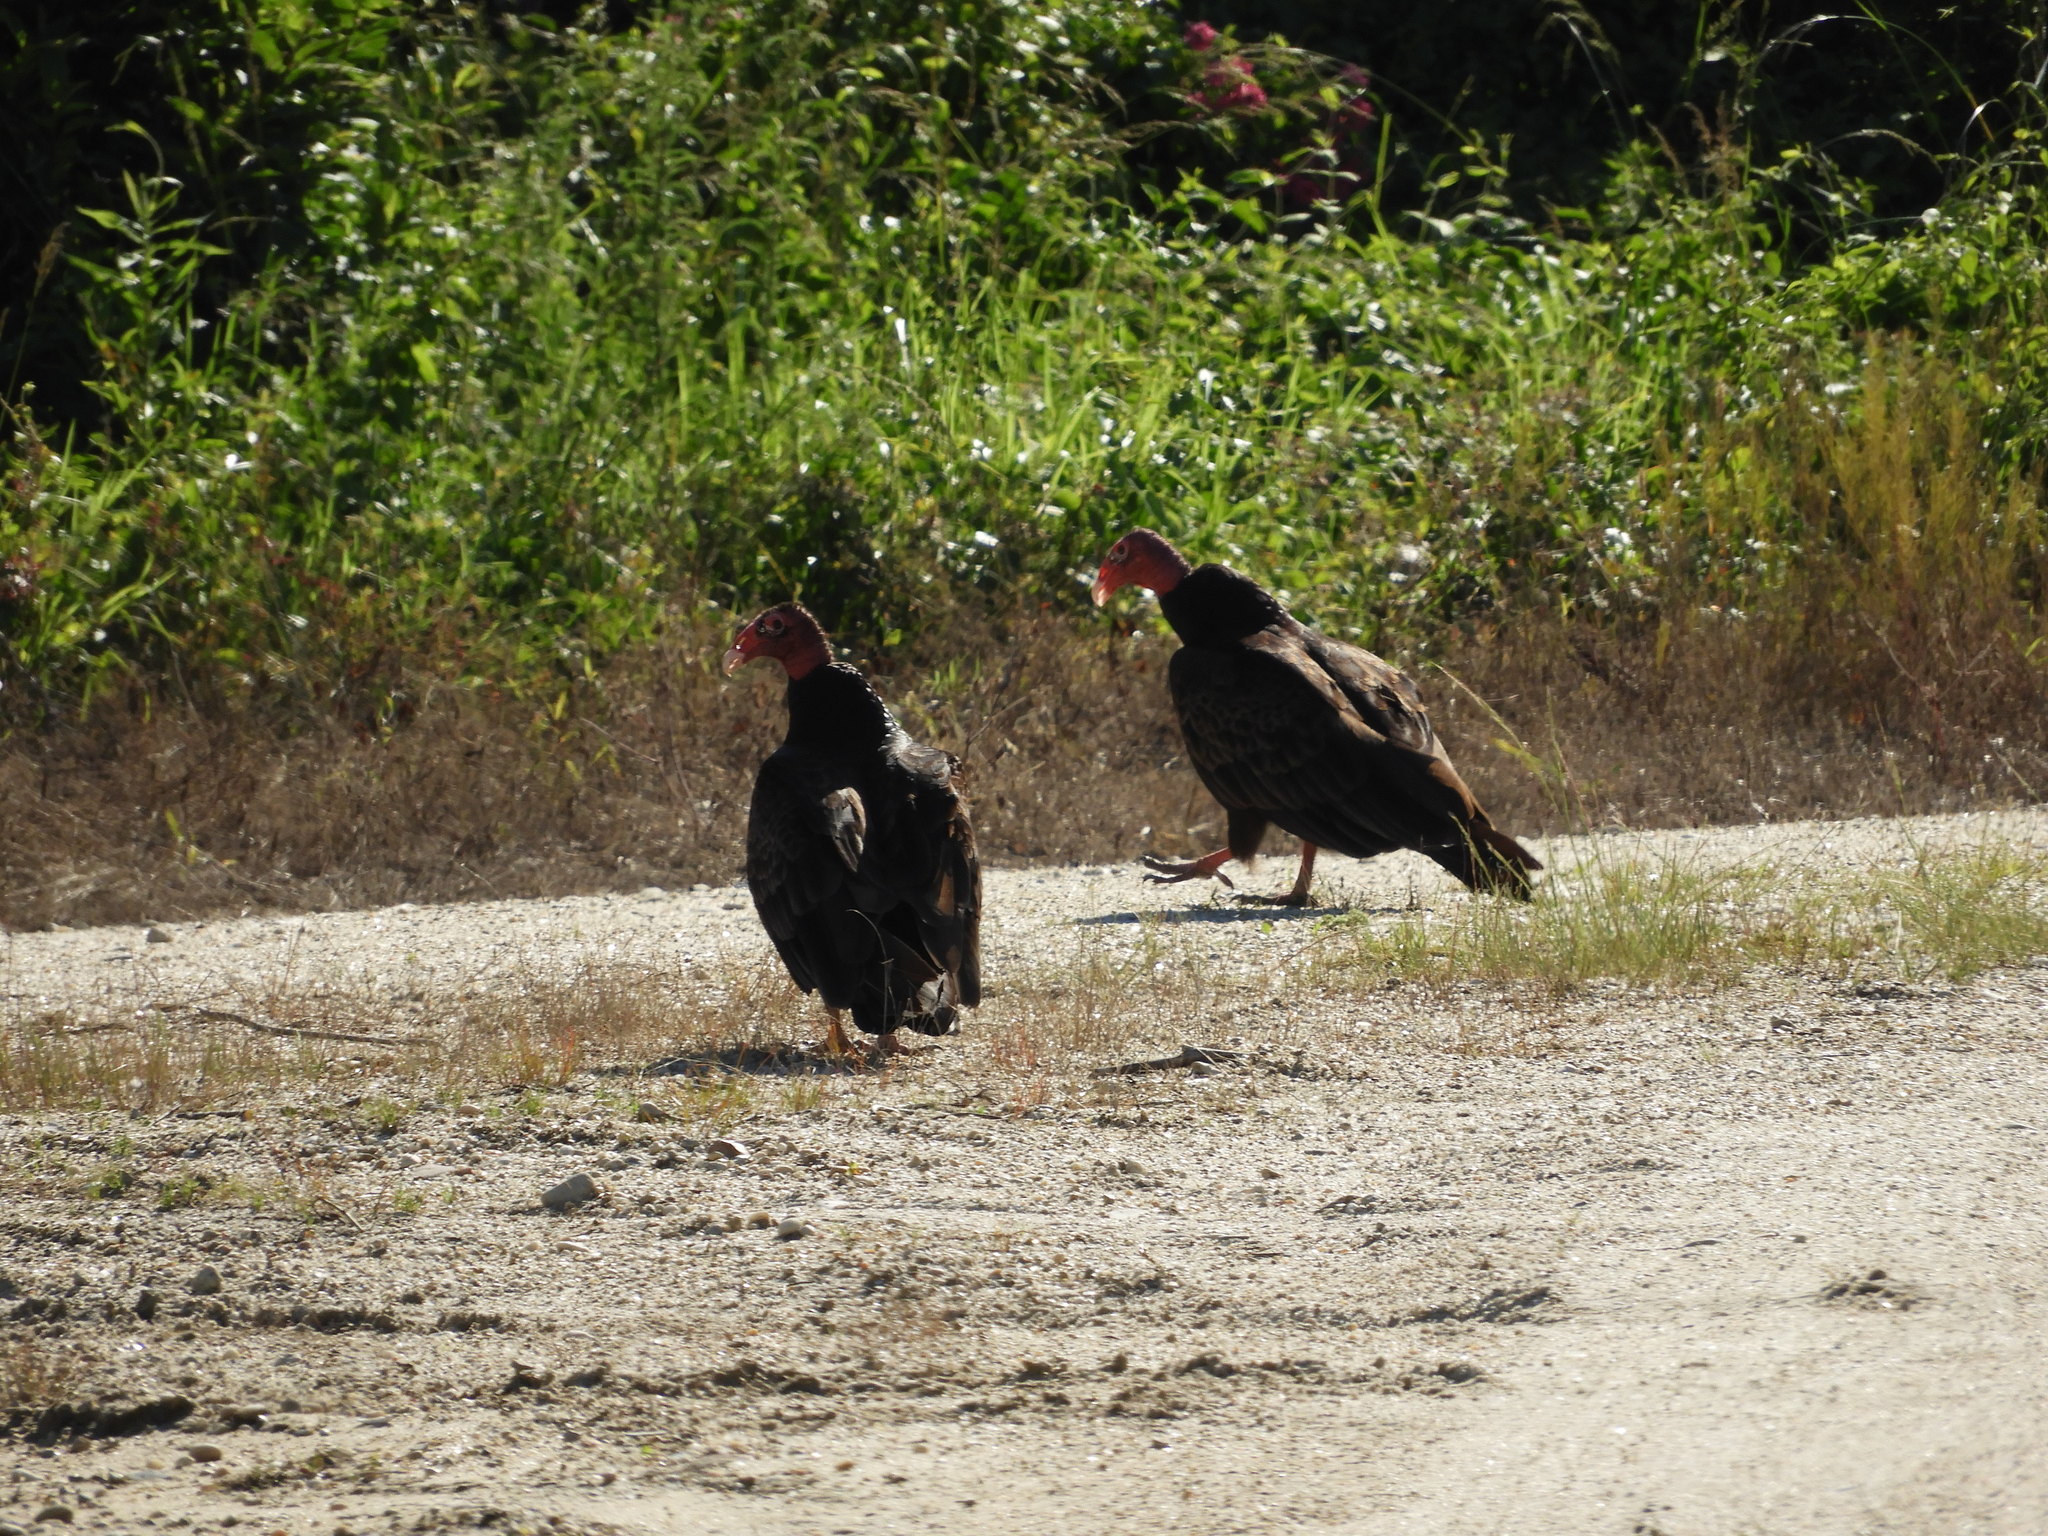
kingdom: Animalia
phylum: Chordata
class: Aves
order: Accipitriformes
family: Cathartidae
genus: Cathartes
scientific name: Cathartes aura
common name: Turkey vulture
